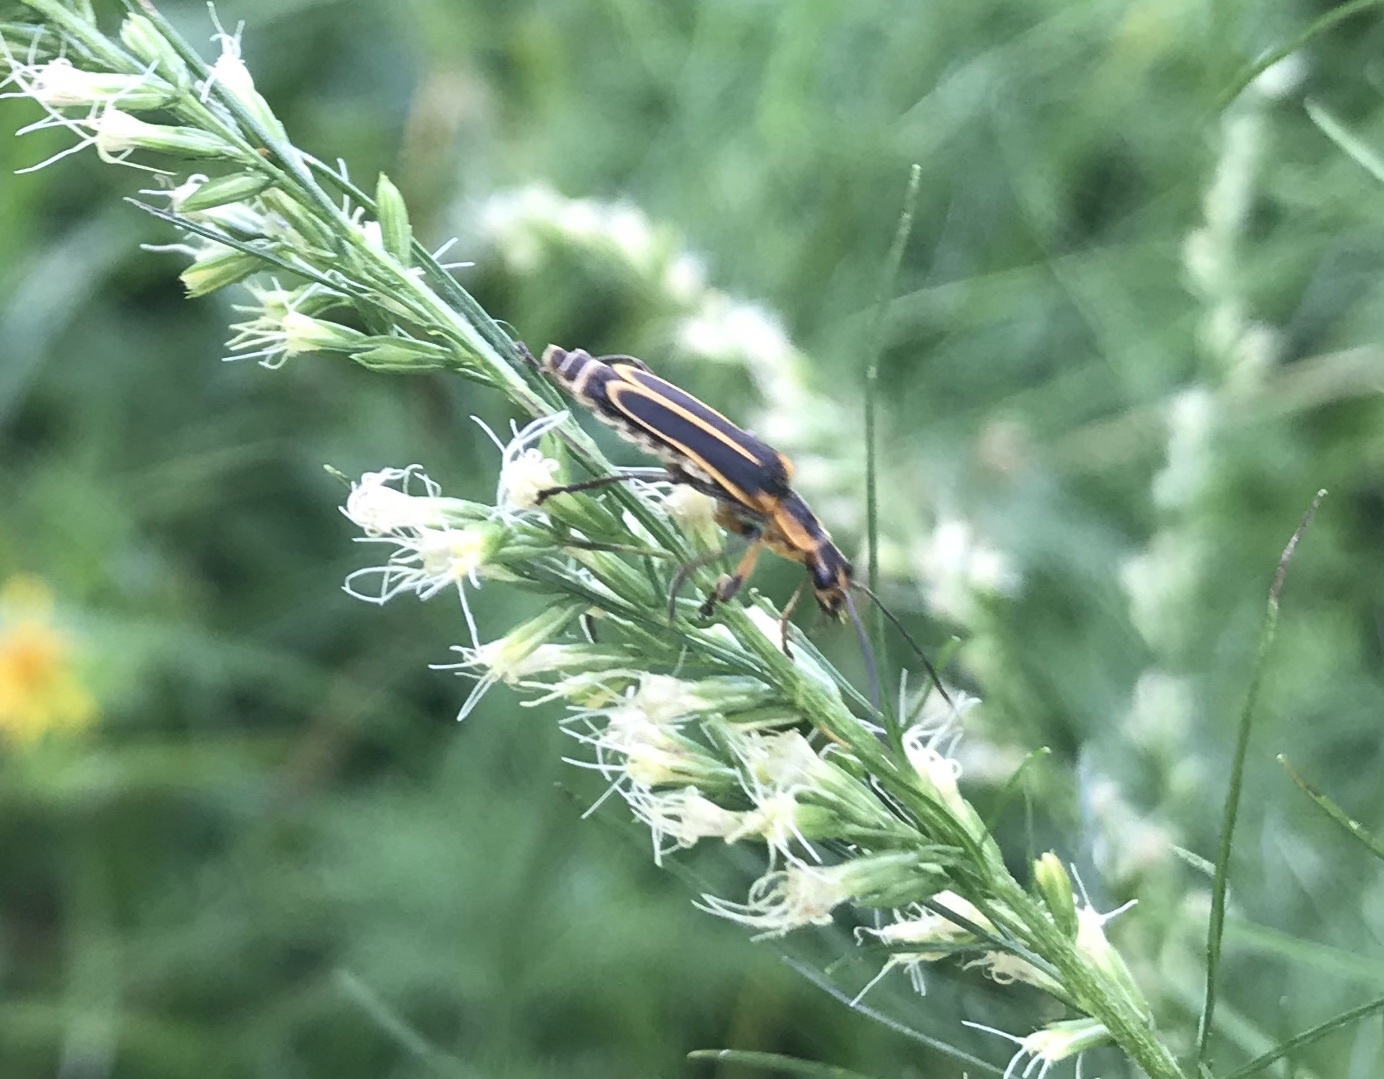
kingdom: Animalia
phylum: Arthropoda
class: Insecta
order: Coleoptera
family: Cantharidae
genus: Chauliognathus
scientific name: Chauliognathus marginatus
